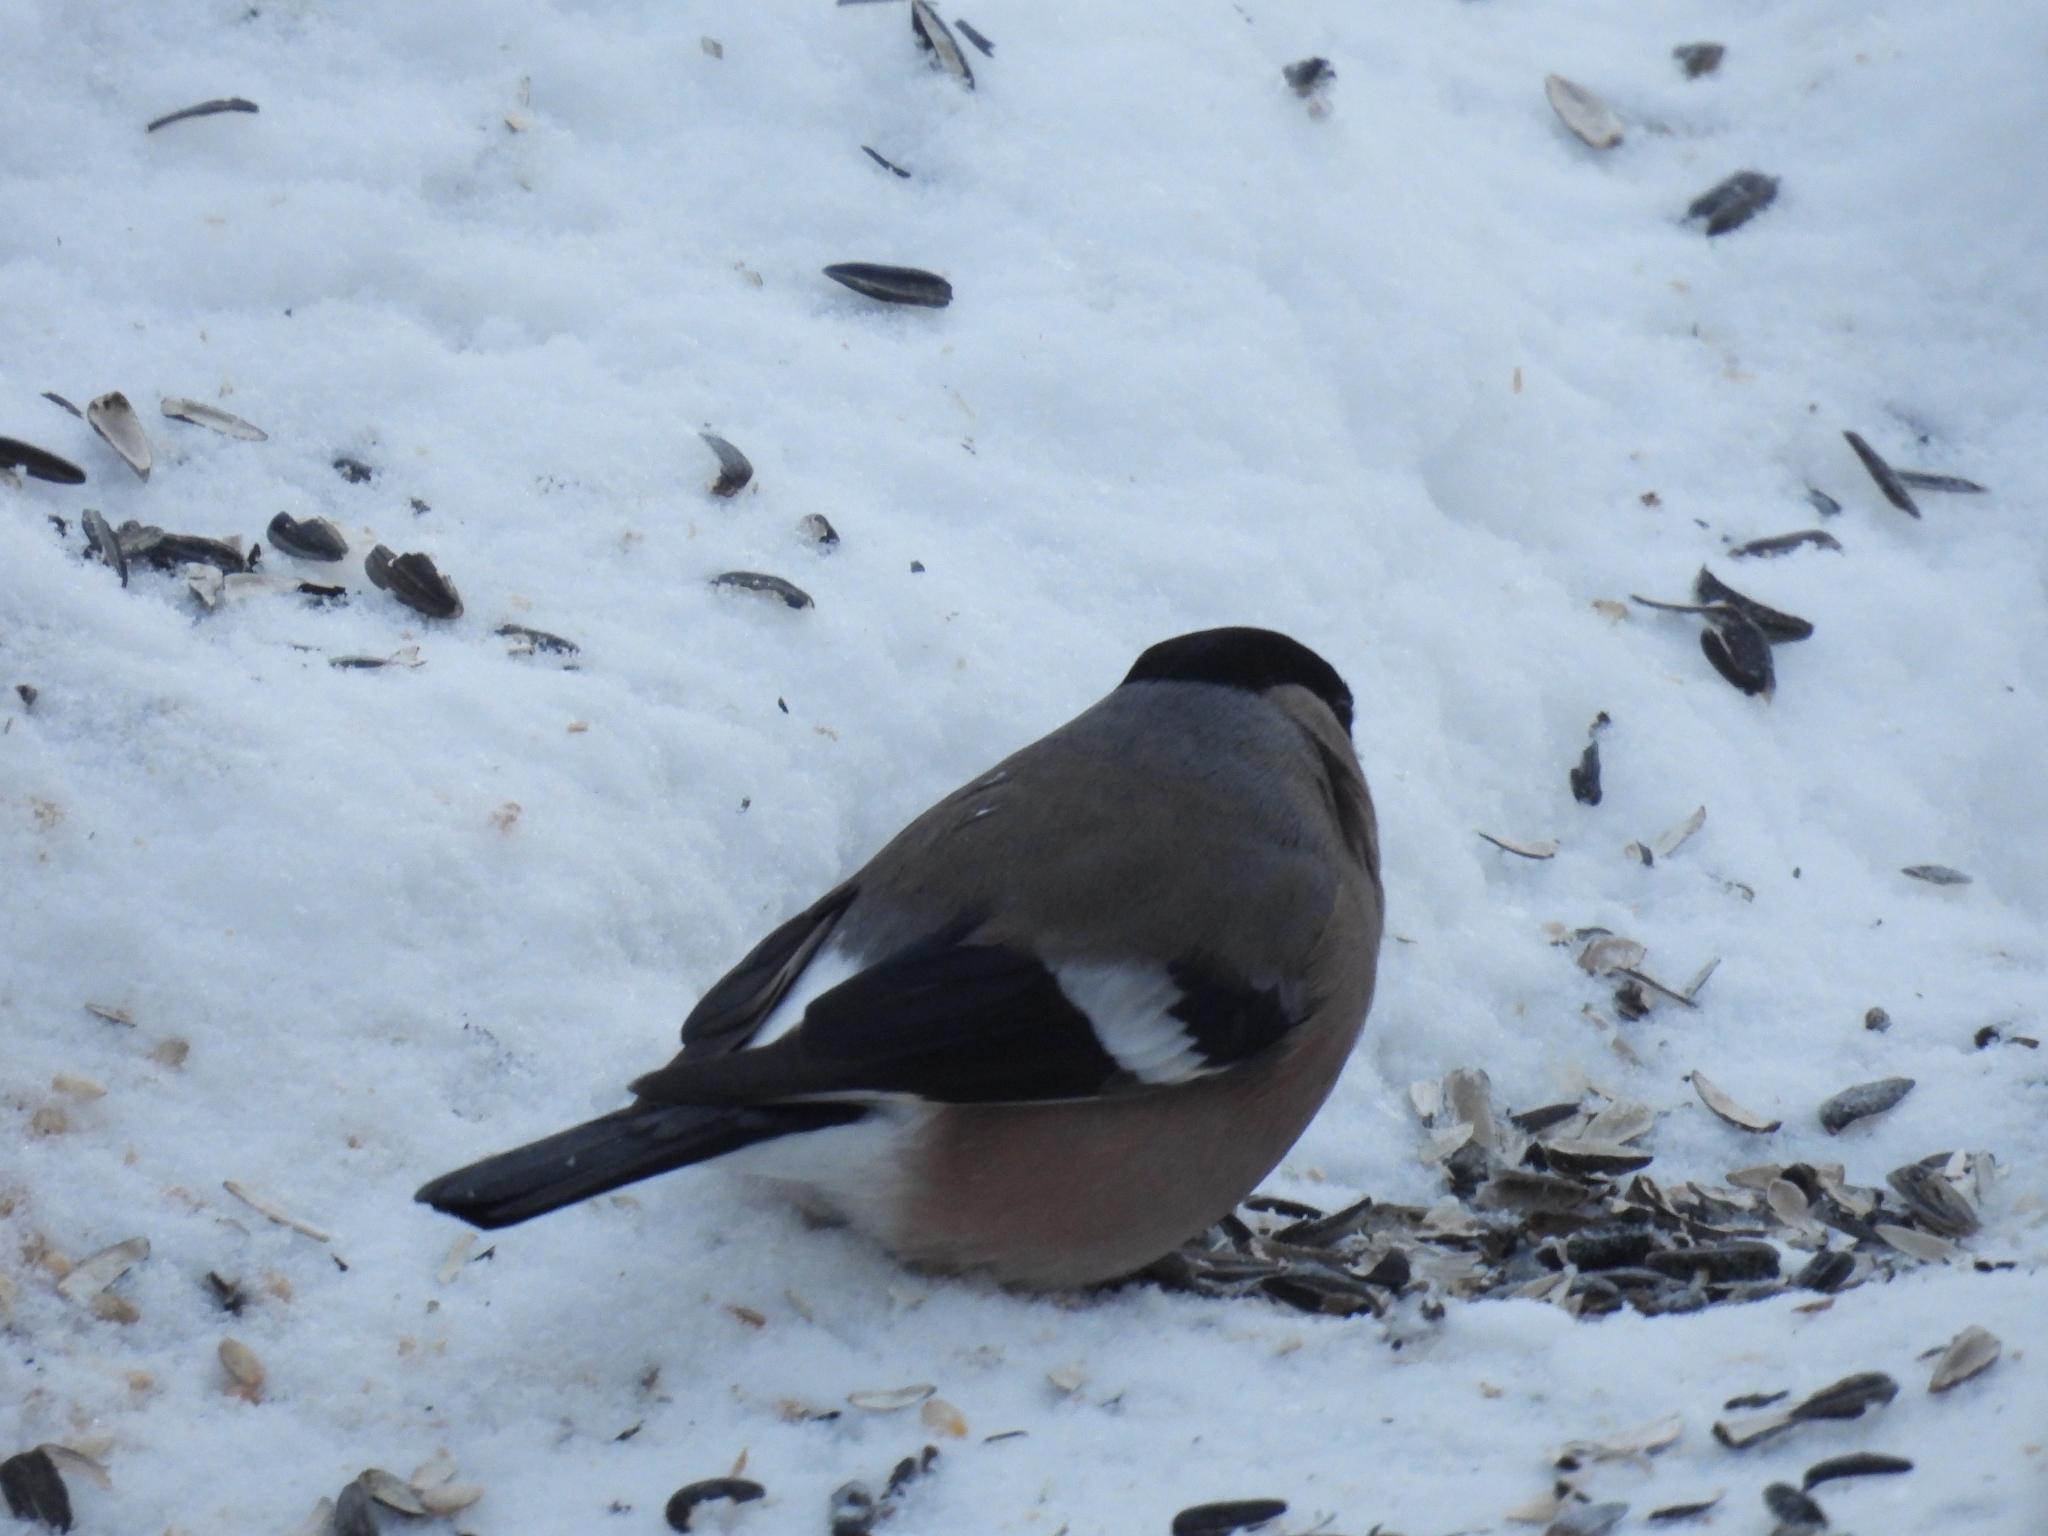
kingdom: Animalia
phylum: Chordata
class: Aves
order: Passeriformes
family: Fringillidae
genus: Pyrrhula
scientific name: Pyrrhula pyrrhula
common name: Eurasian bullfinch
